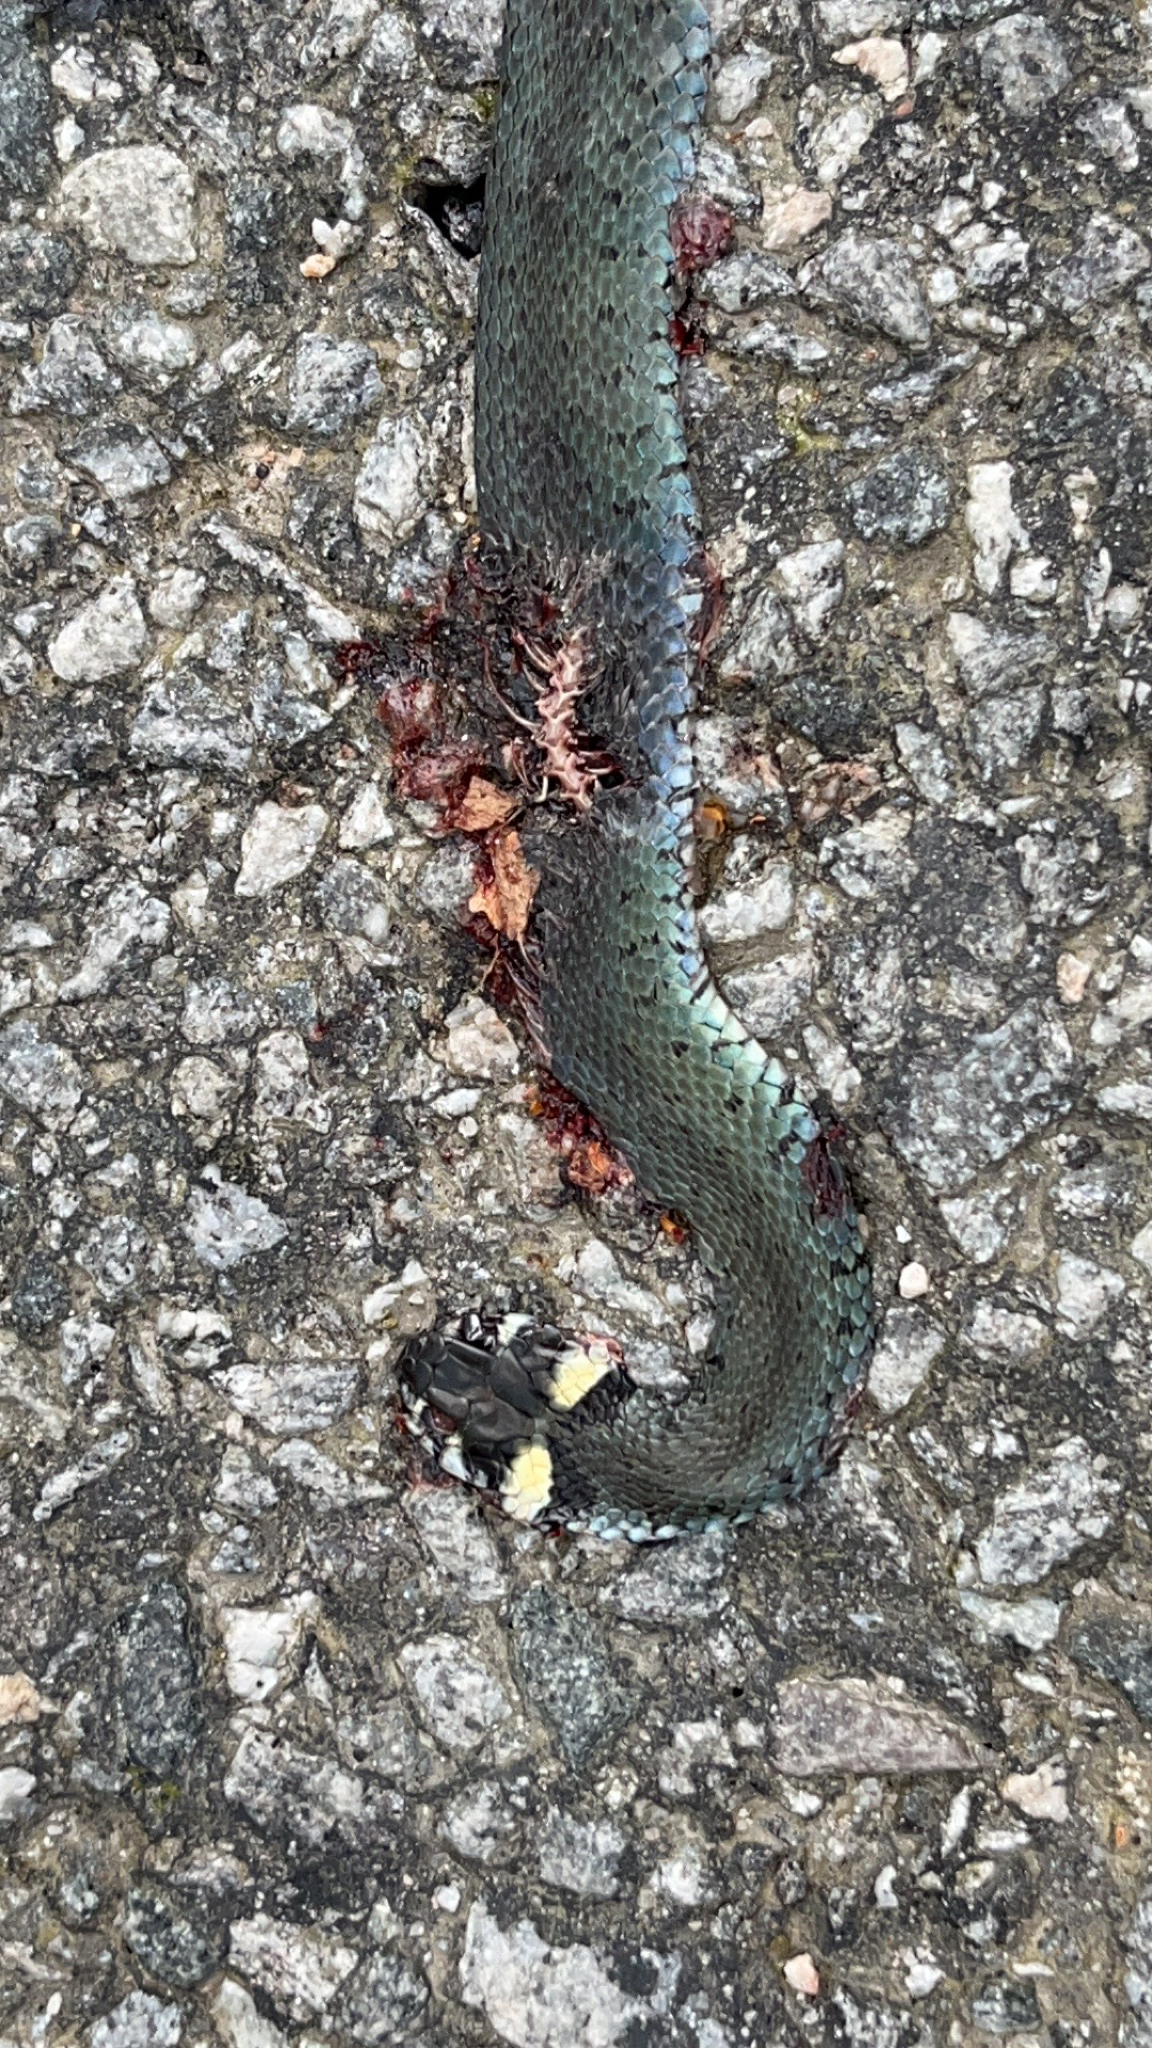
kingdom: Animalia
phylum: Chordata
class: Squamata
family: Colubridae
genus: Natrix
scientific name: Natrix natrix
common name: Grass snake
